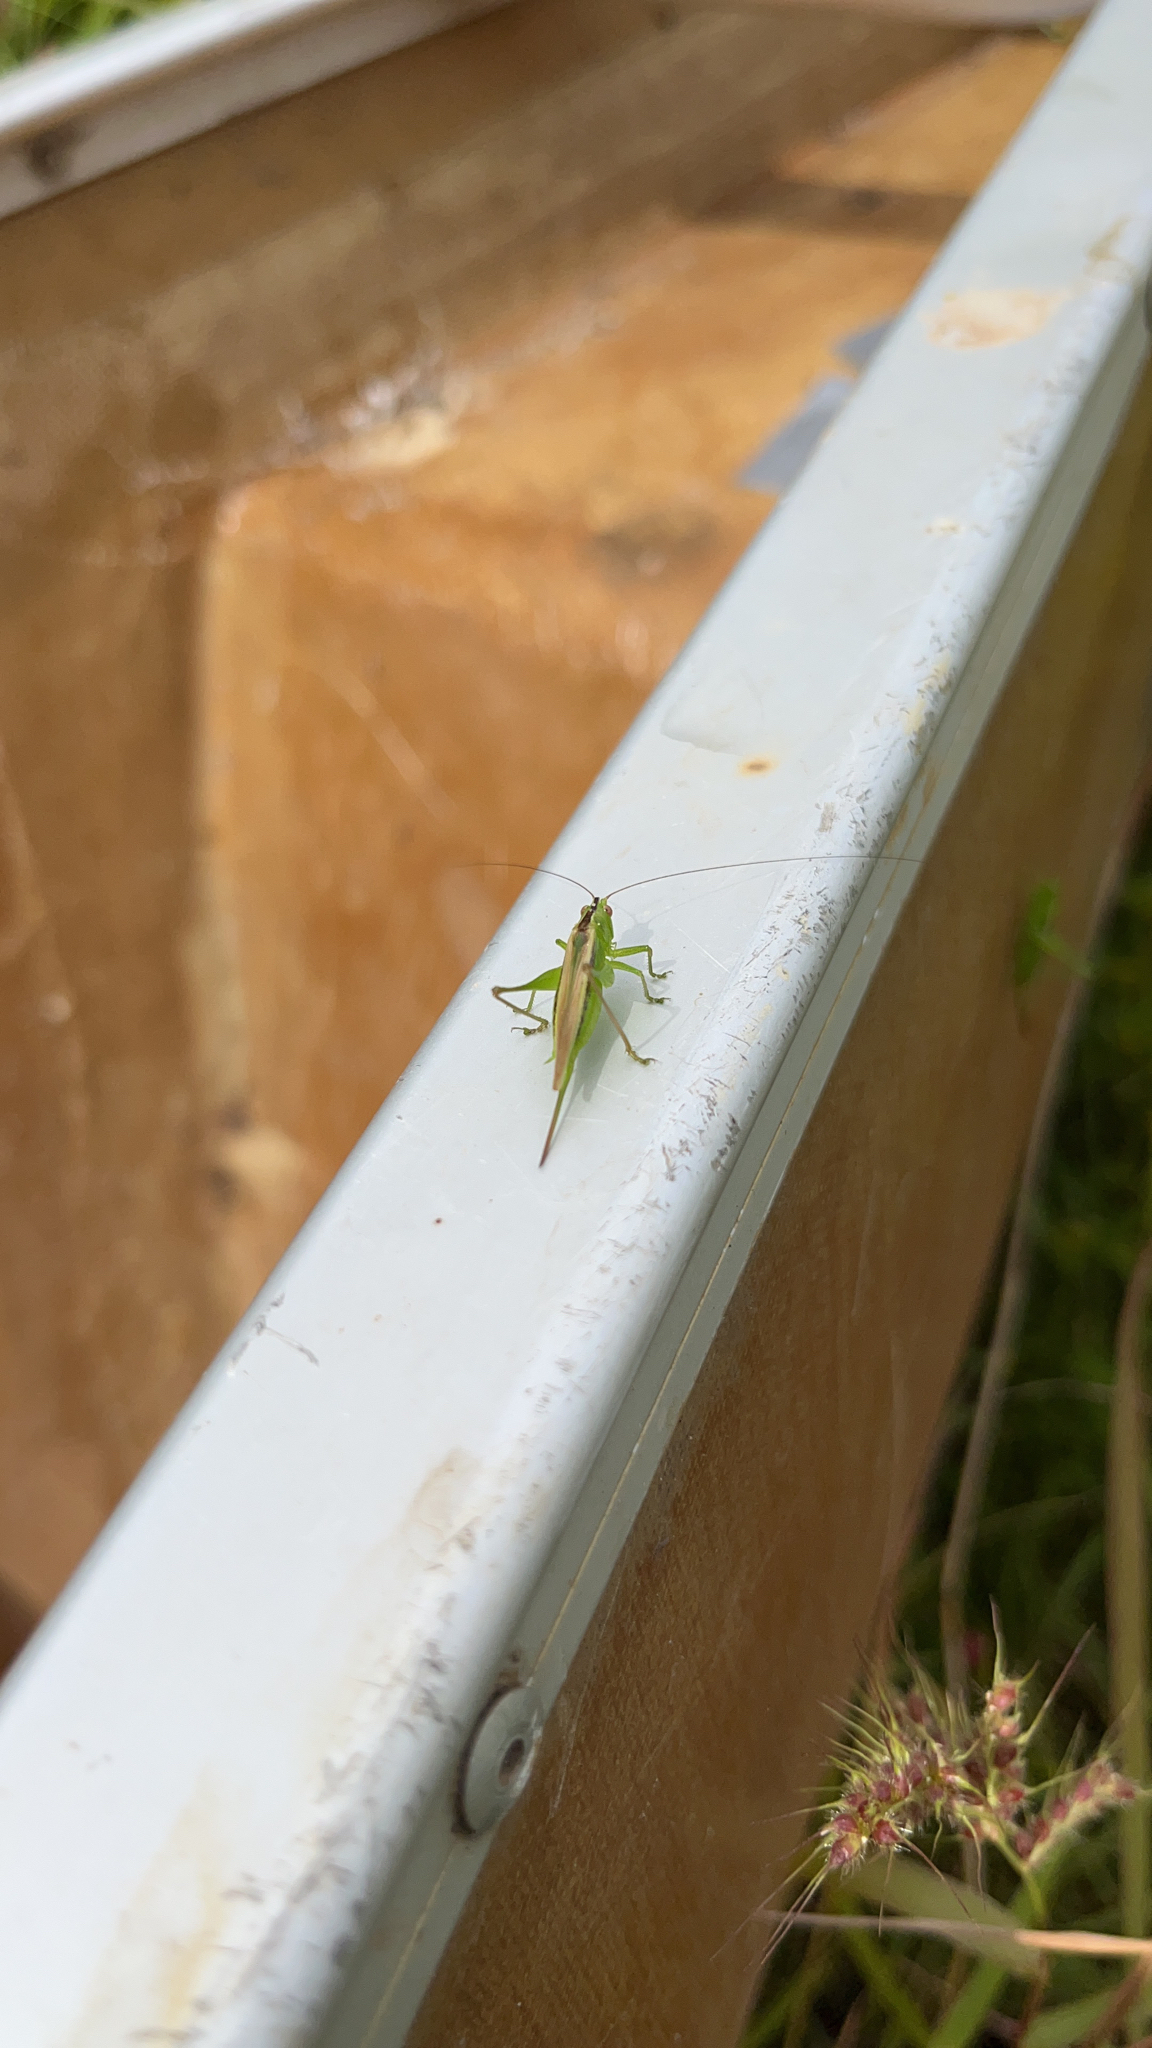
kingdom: Animalia
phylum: Arthropoda
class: Insecta
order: Orthoptera
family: Tettigoniidae
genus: Conocephalus
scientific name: Conocephalus fasciatus
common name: Slender meadow katydid
